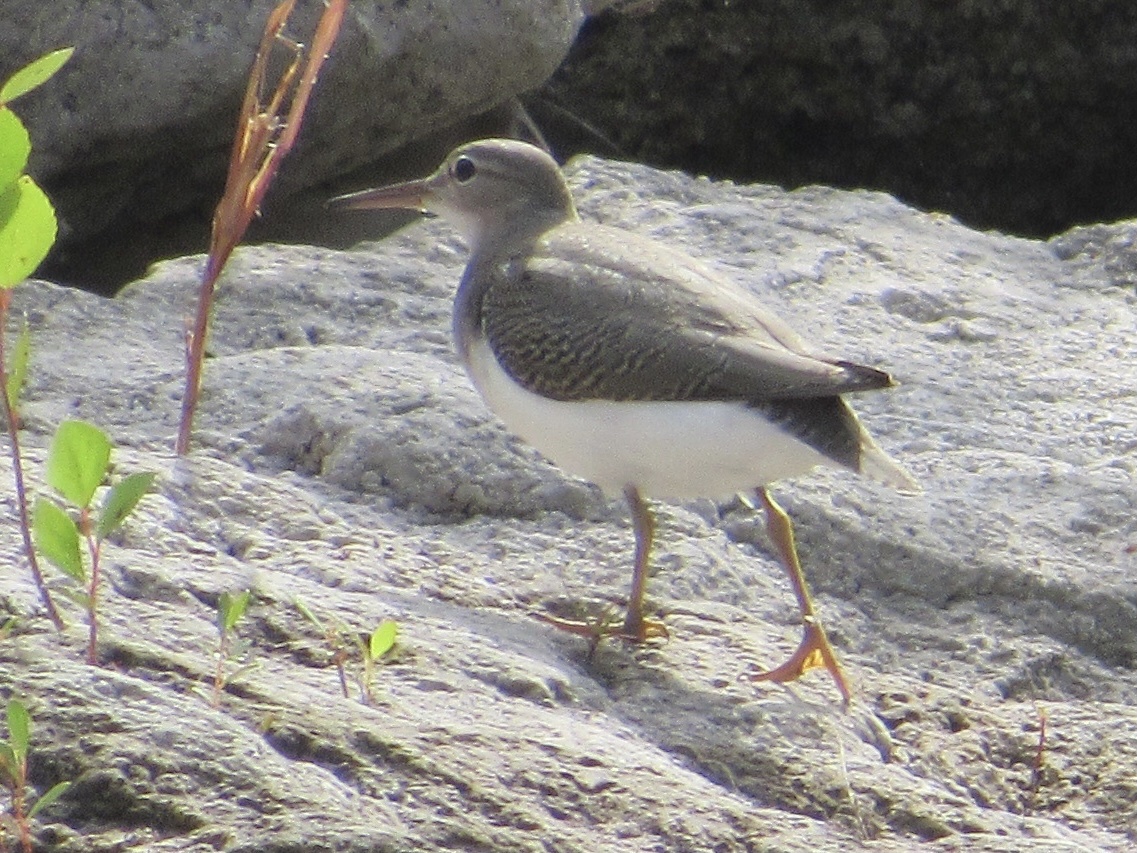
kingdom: Animalia
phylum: Chordata
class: Aves
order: Charadriiformes
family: Scolopacidae
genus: Actitis
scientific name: Actitis macularius
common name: Spotted sandpiper
